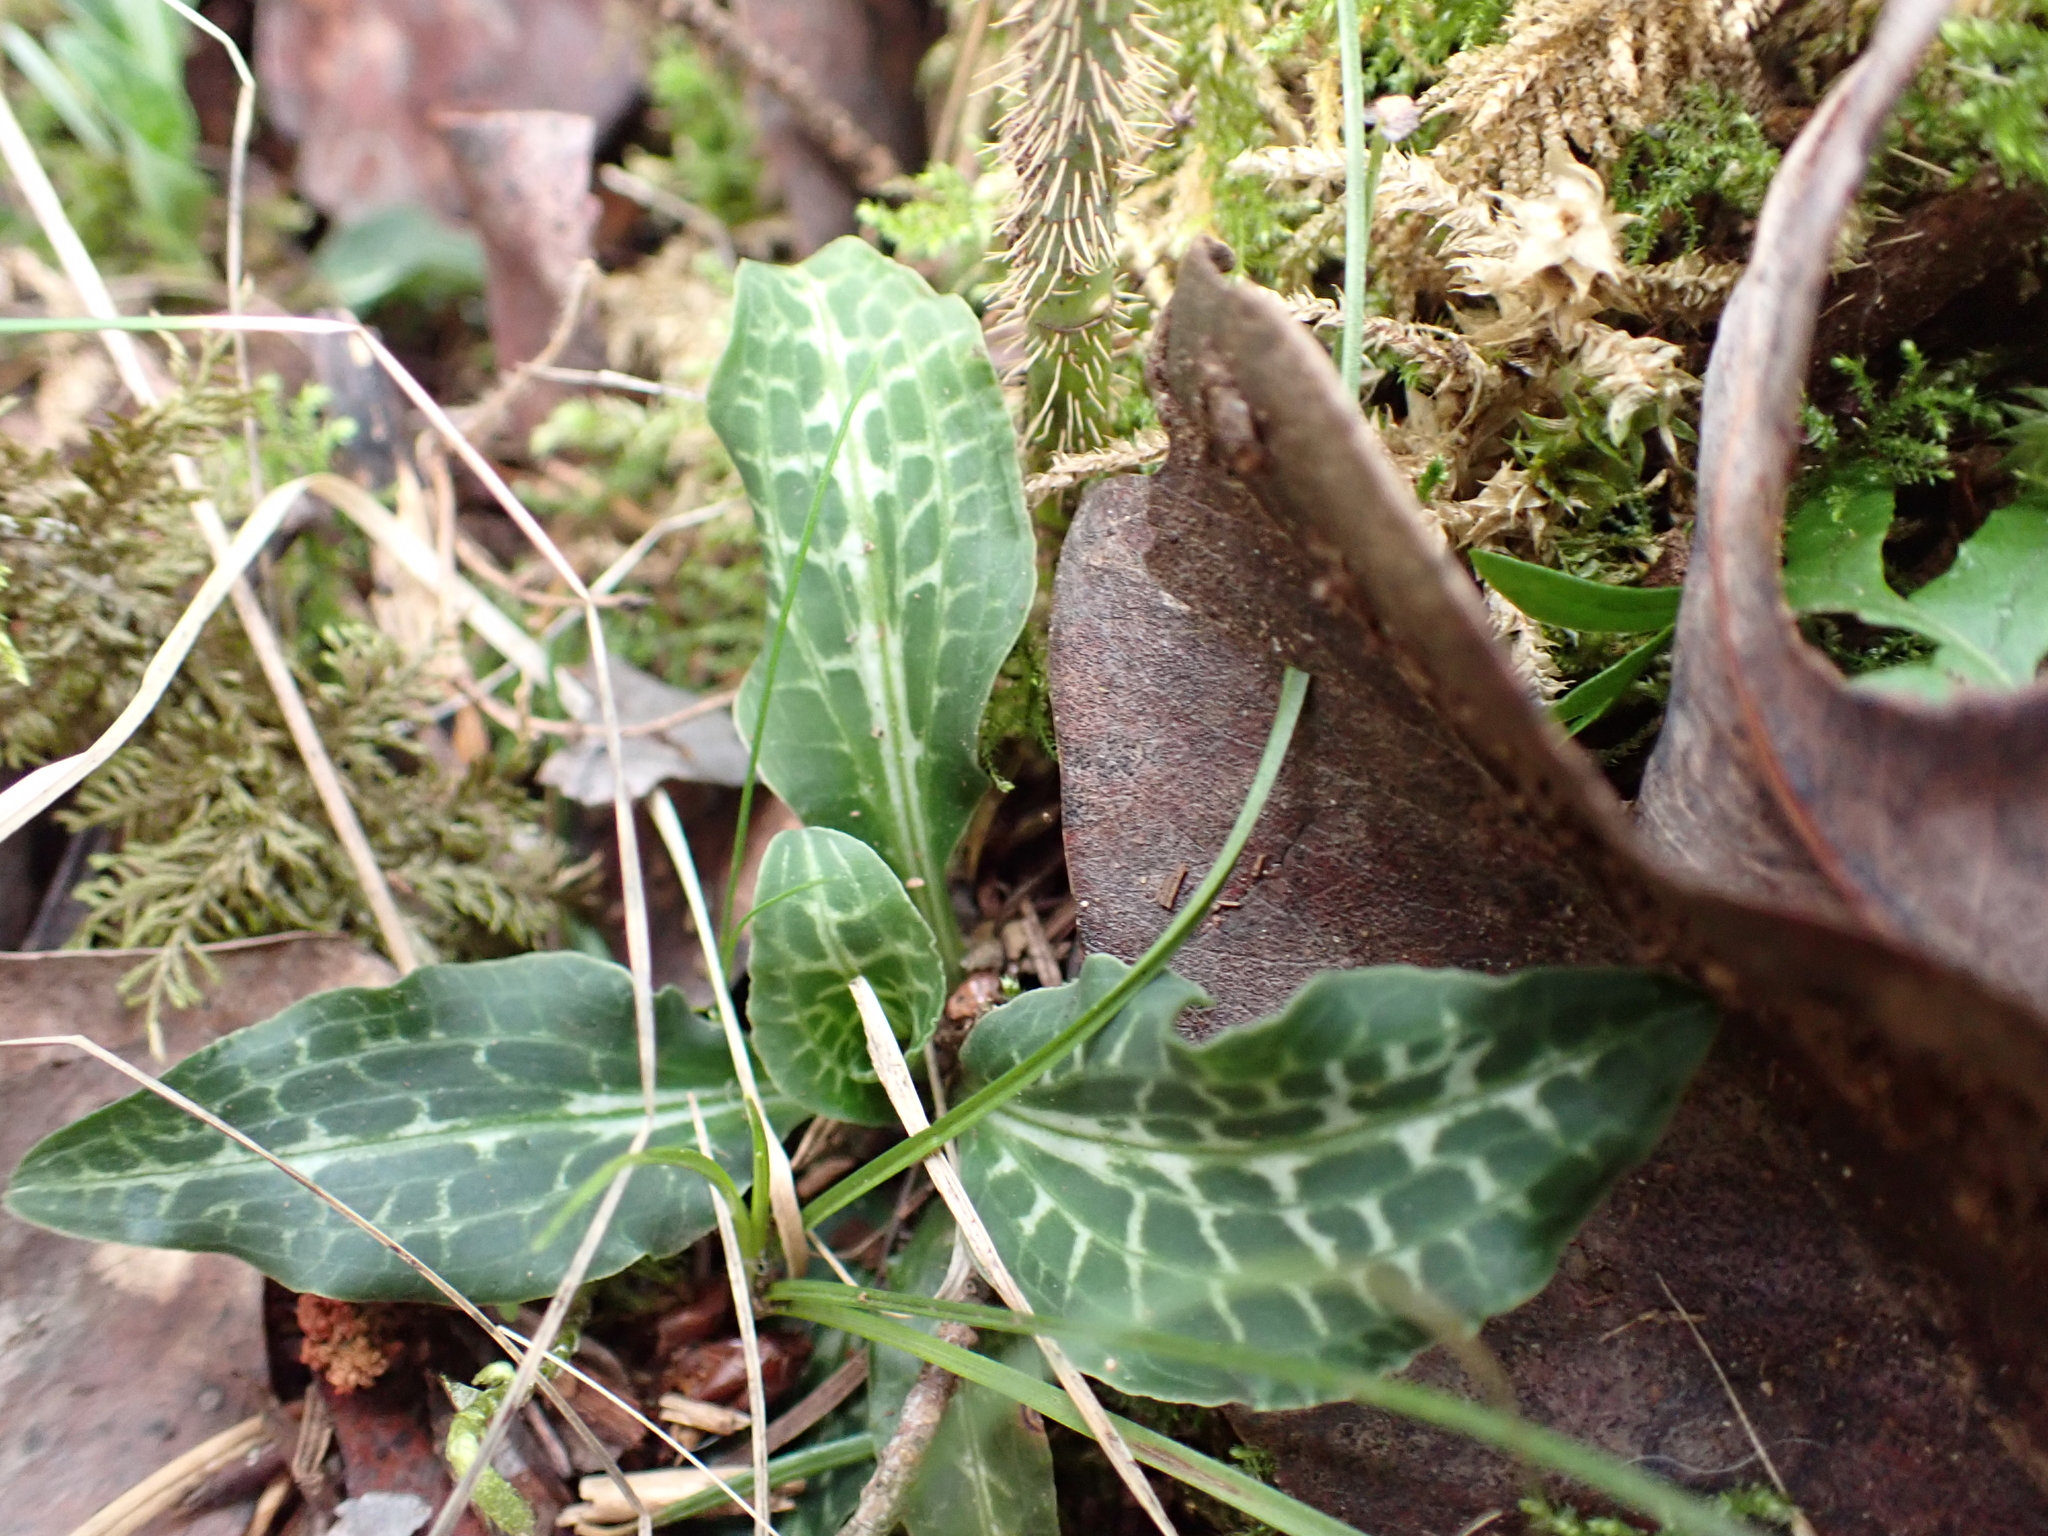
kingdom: Plantae
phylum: Tracheophyta
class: Liliopsida
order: Asparagales
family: Orchidaceae
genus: Goodyera
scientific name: Goodyera oblongifolia
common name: Giant rattlesnake-plantain
